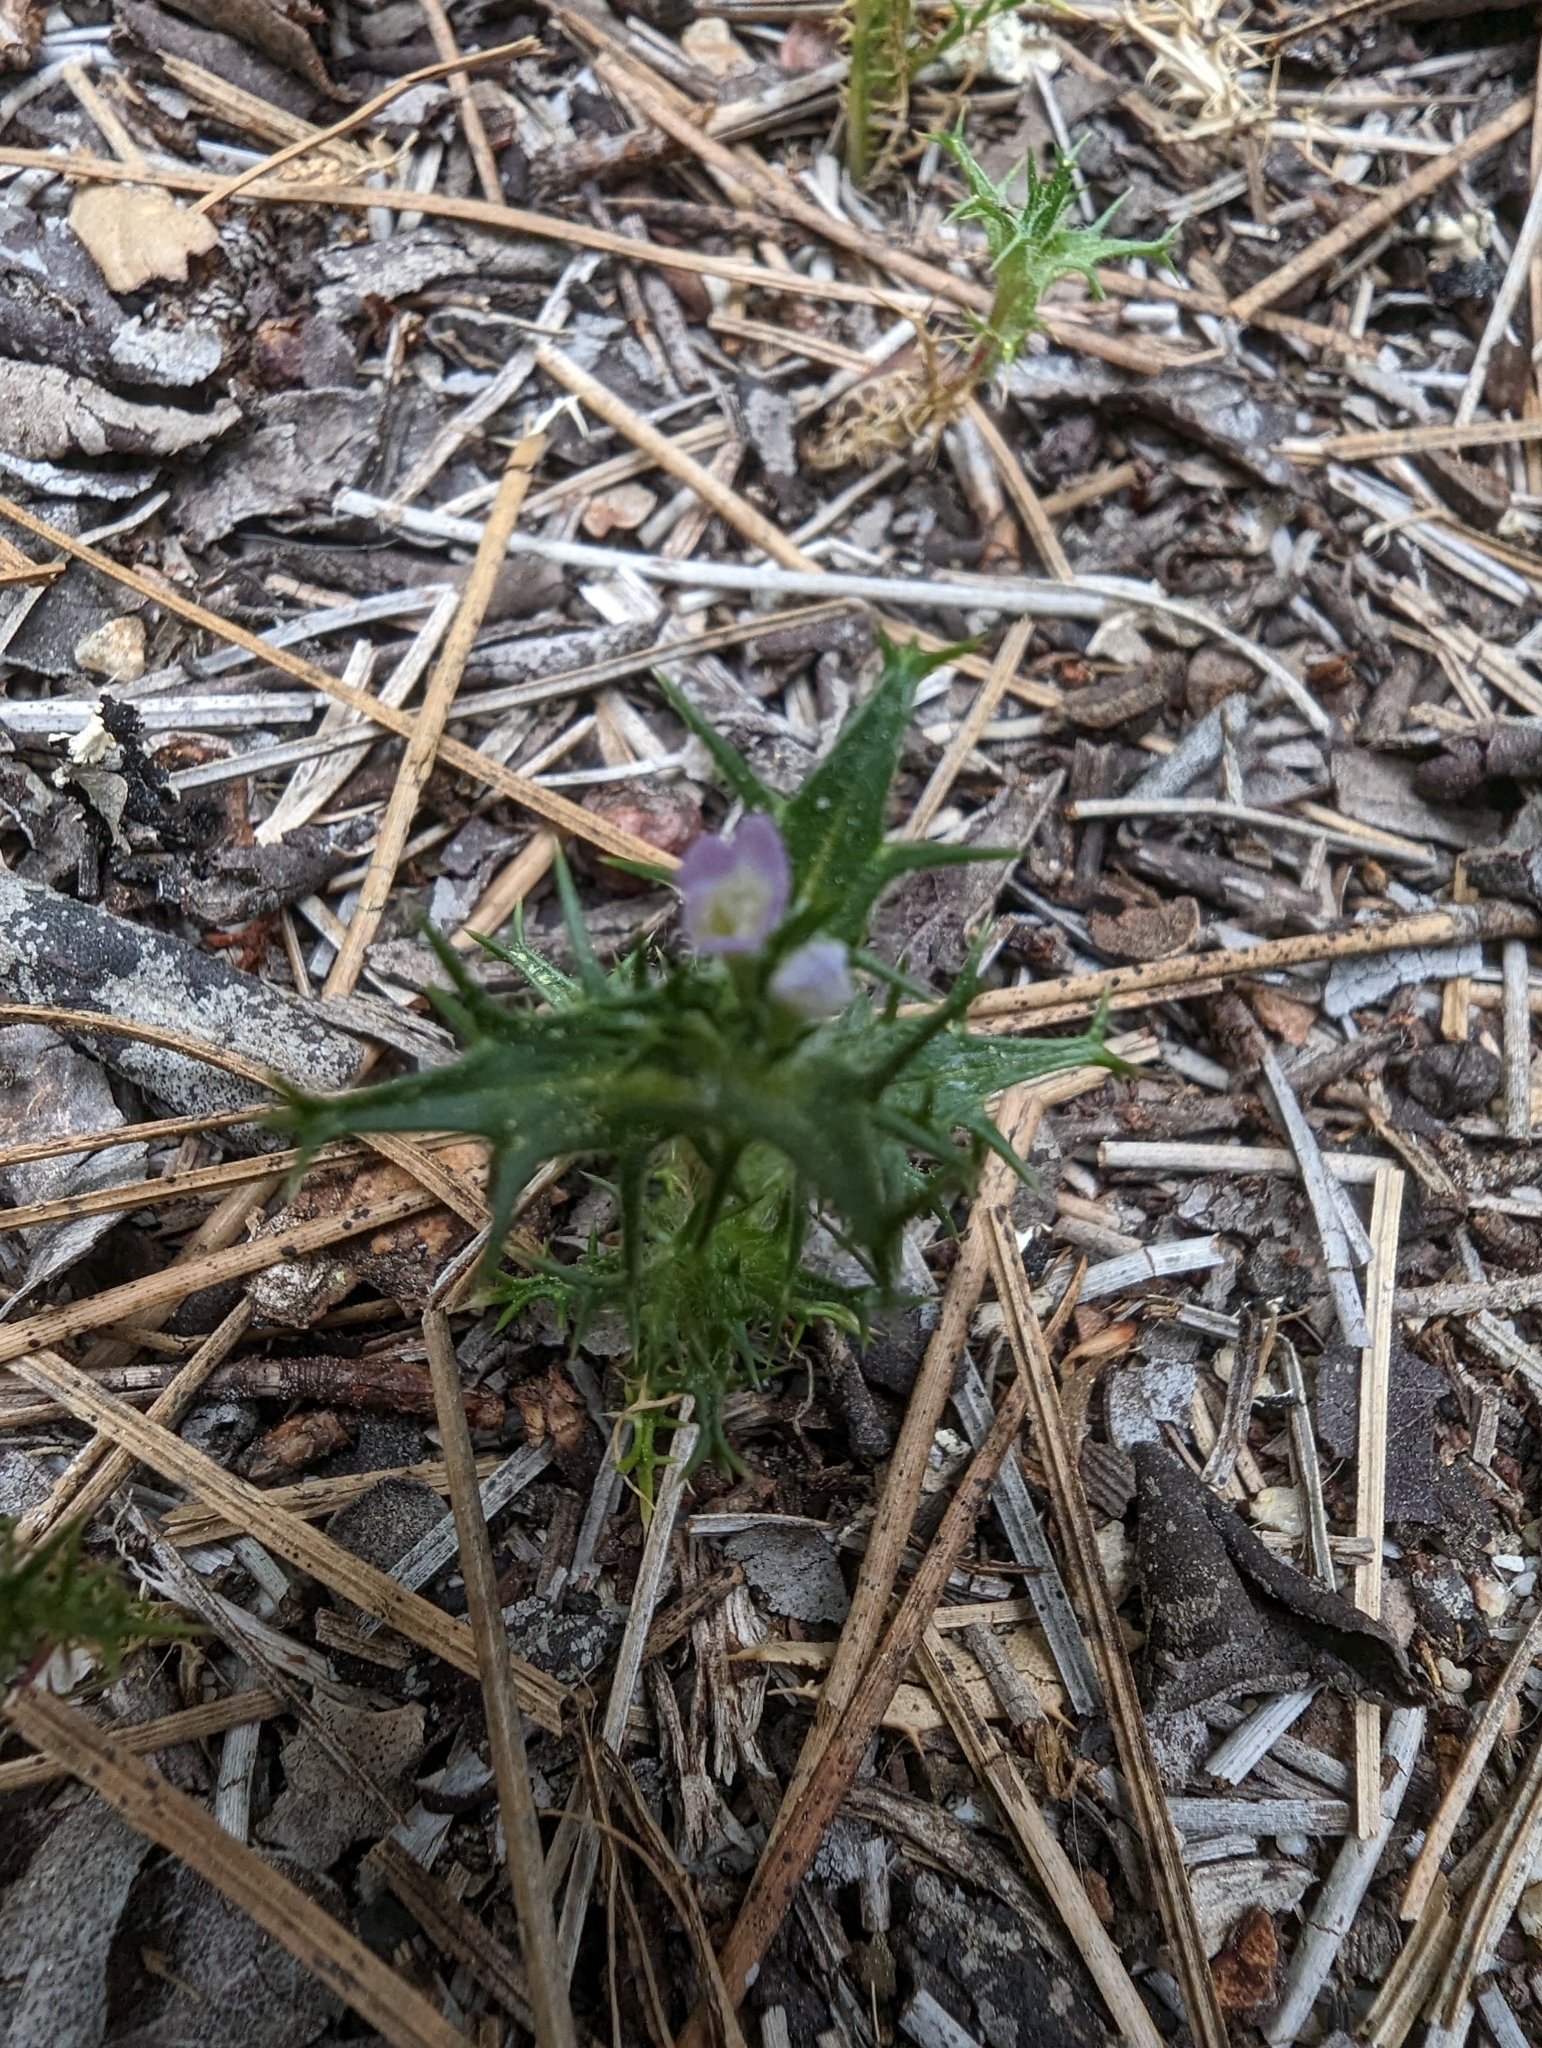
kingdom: Plantae
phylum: Tracheophyta
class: Magnoliopsida
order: Ericales
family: Polemoniaceae
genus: Navarretia
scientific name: Navarretia atractyloides
